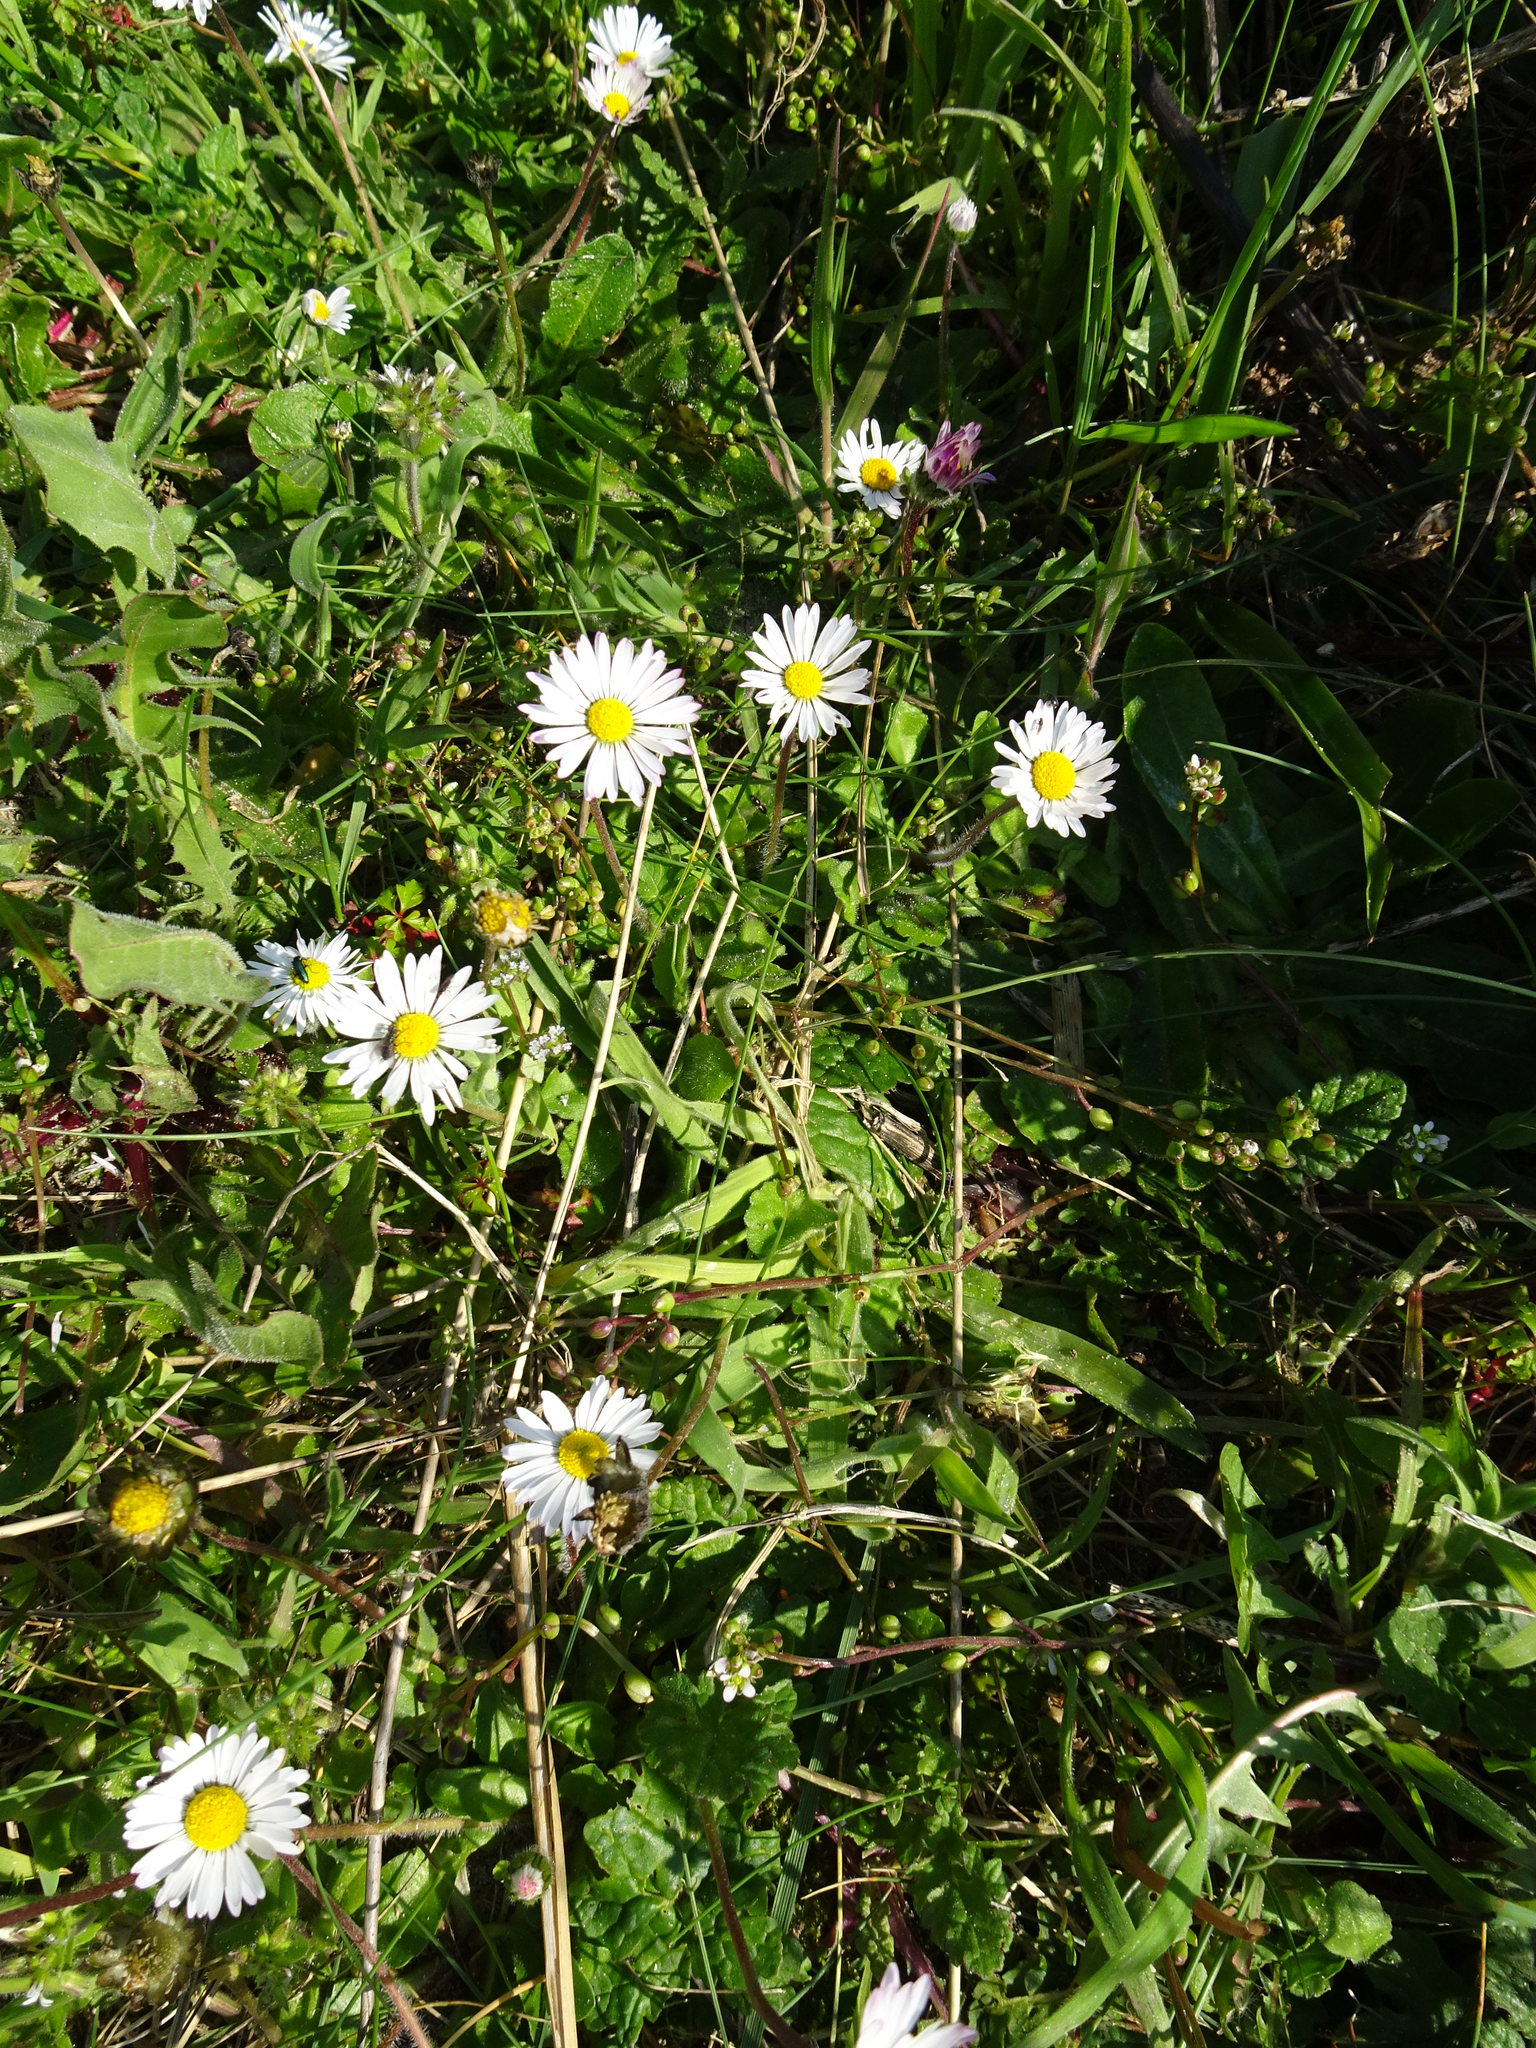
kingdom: Plantae
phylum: Tracheophyta
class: Magnoliopsida
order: Asterales
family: Asteraceae
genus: Bellis
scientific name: Bellis perennis
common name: Lawndaisy
